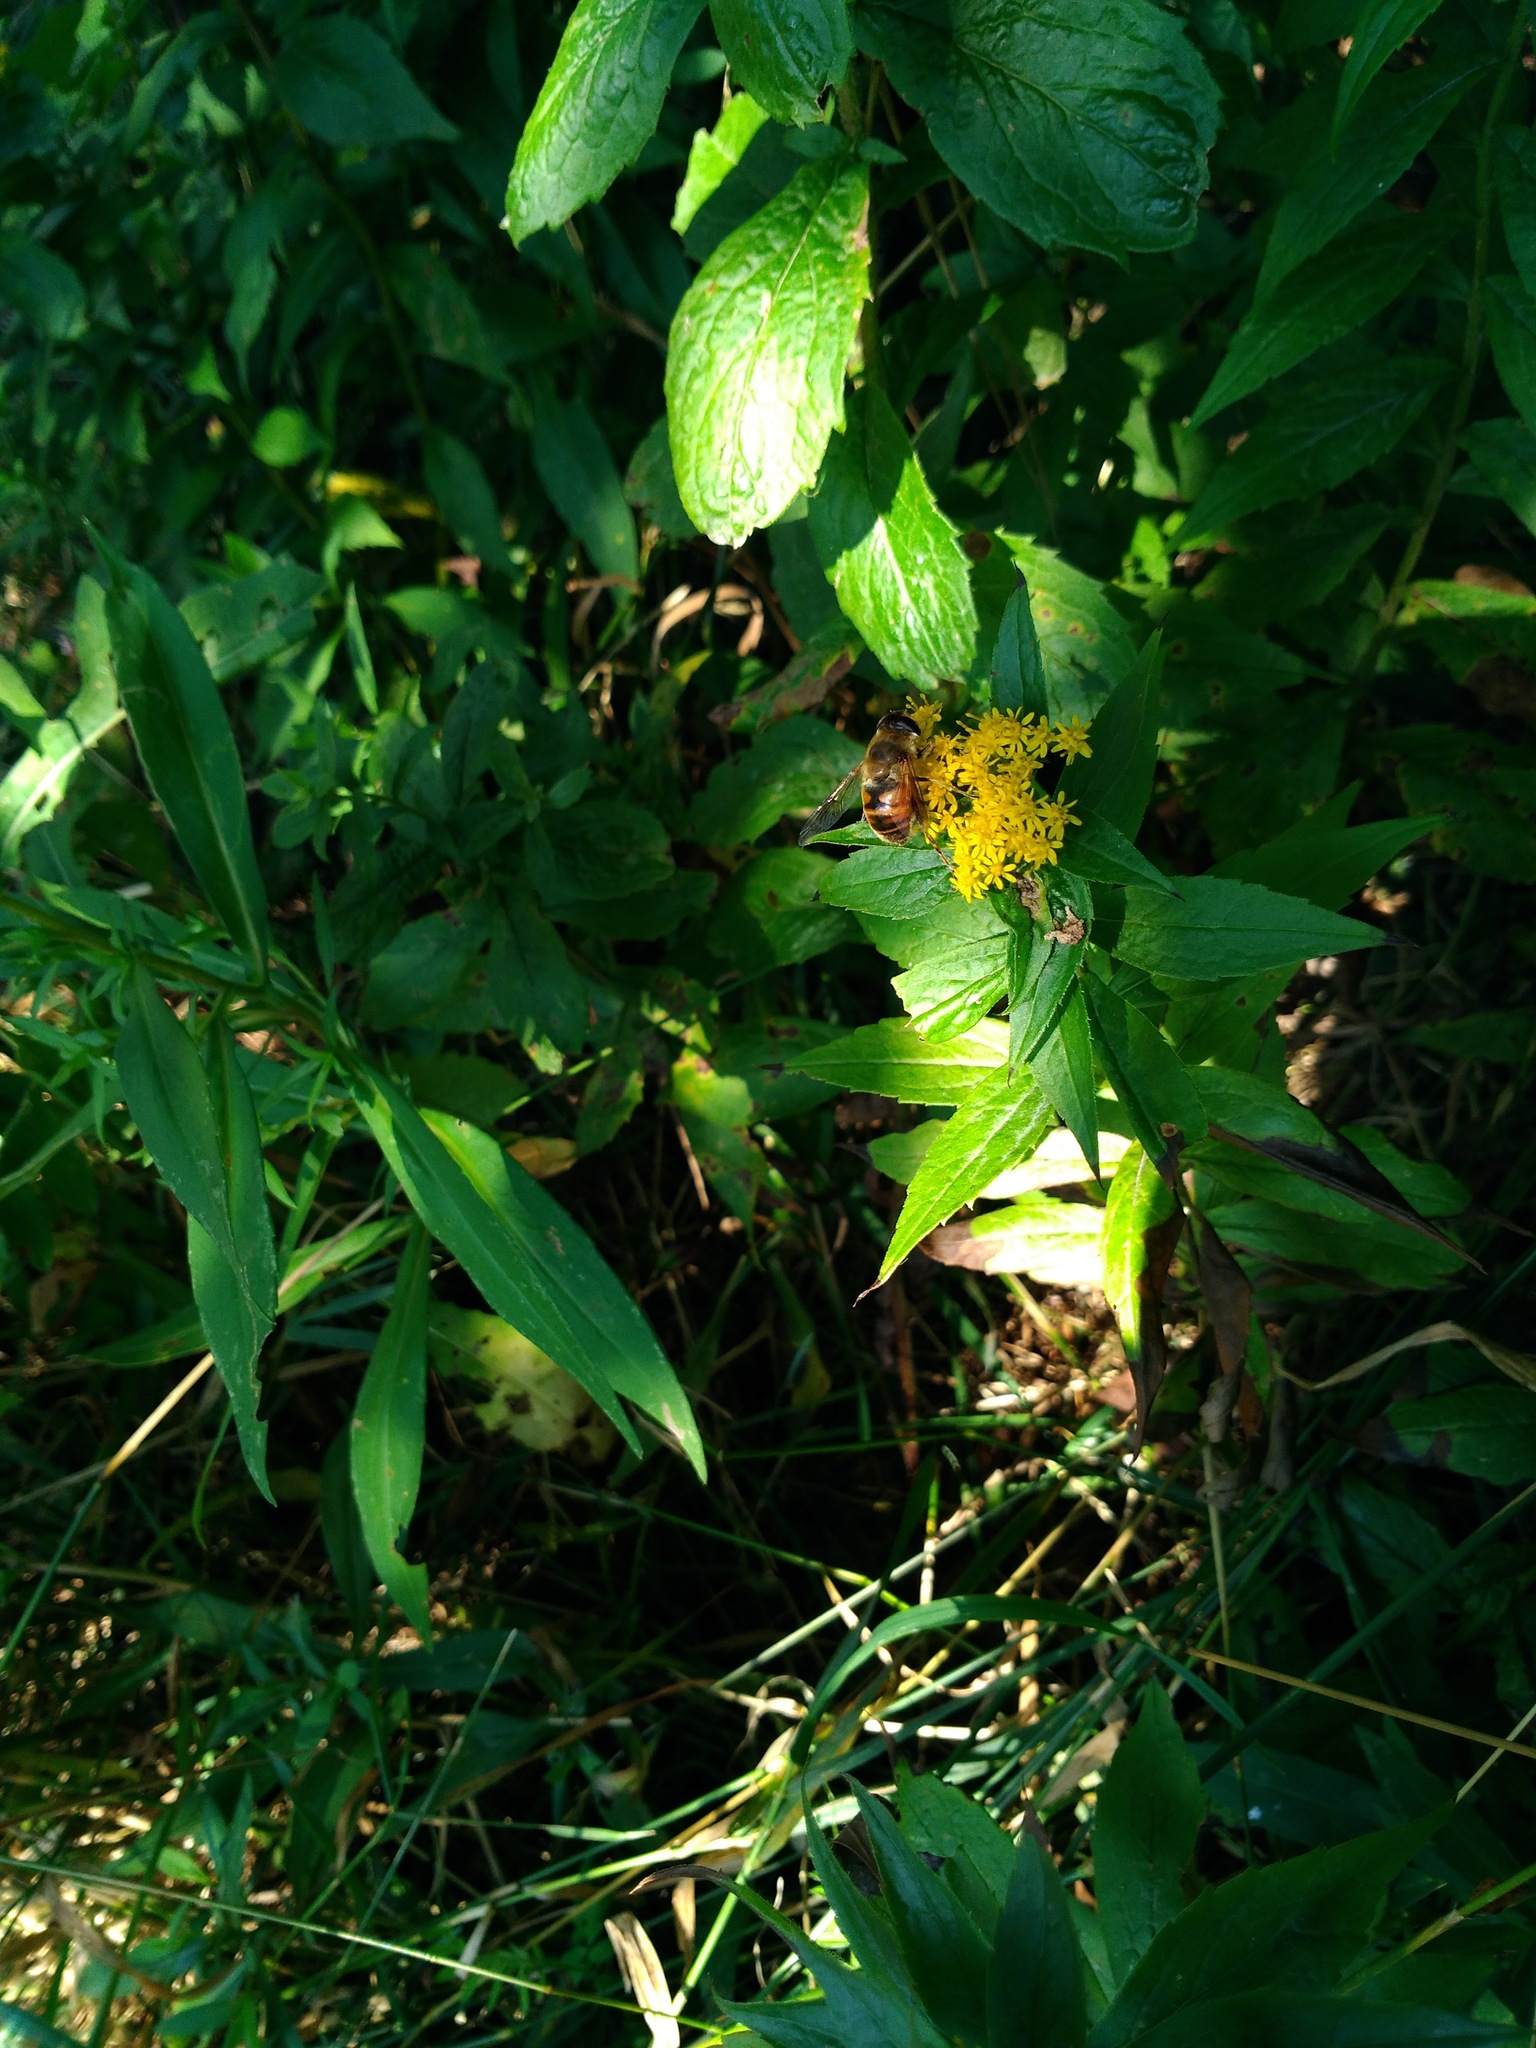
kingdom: Plantae
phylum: Tracheophyta
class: Magnoliopsida
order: Asterales
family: Asteraceae
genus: Solidago
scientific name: Solidago rugosa
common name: Rough-stemmed goldenrod
